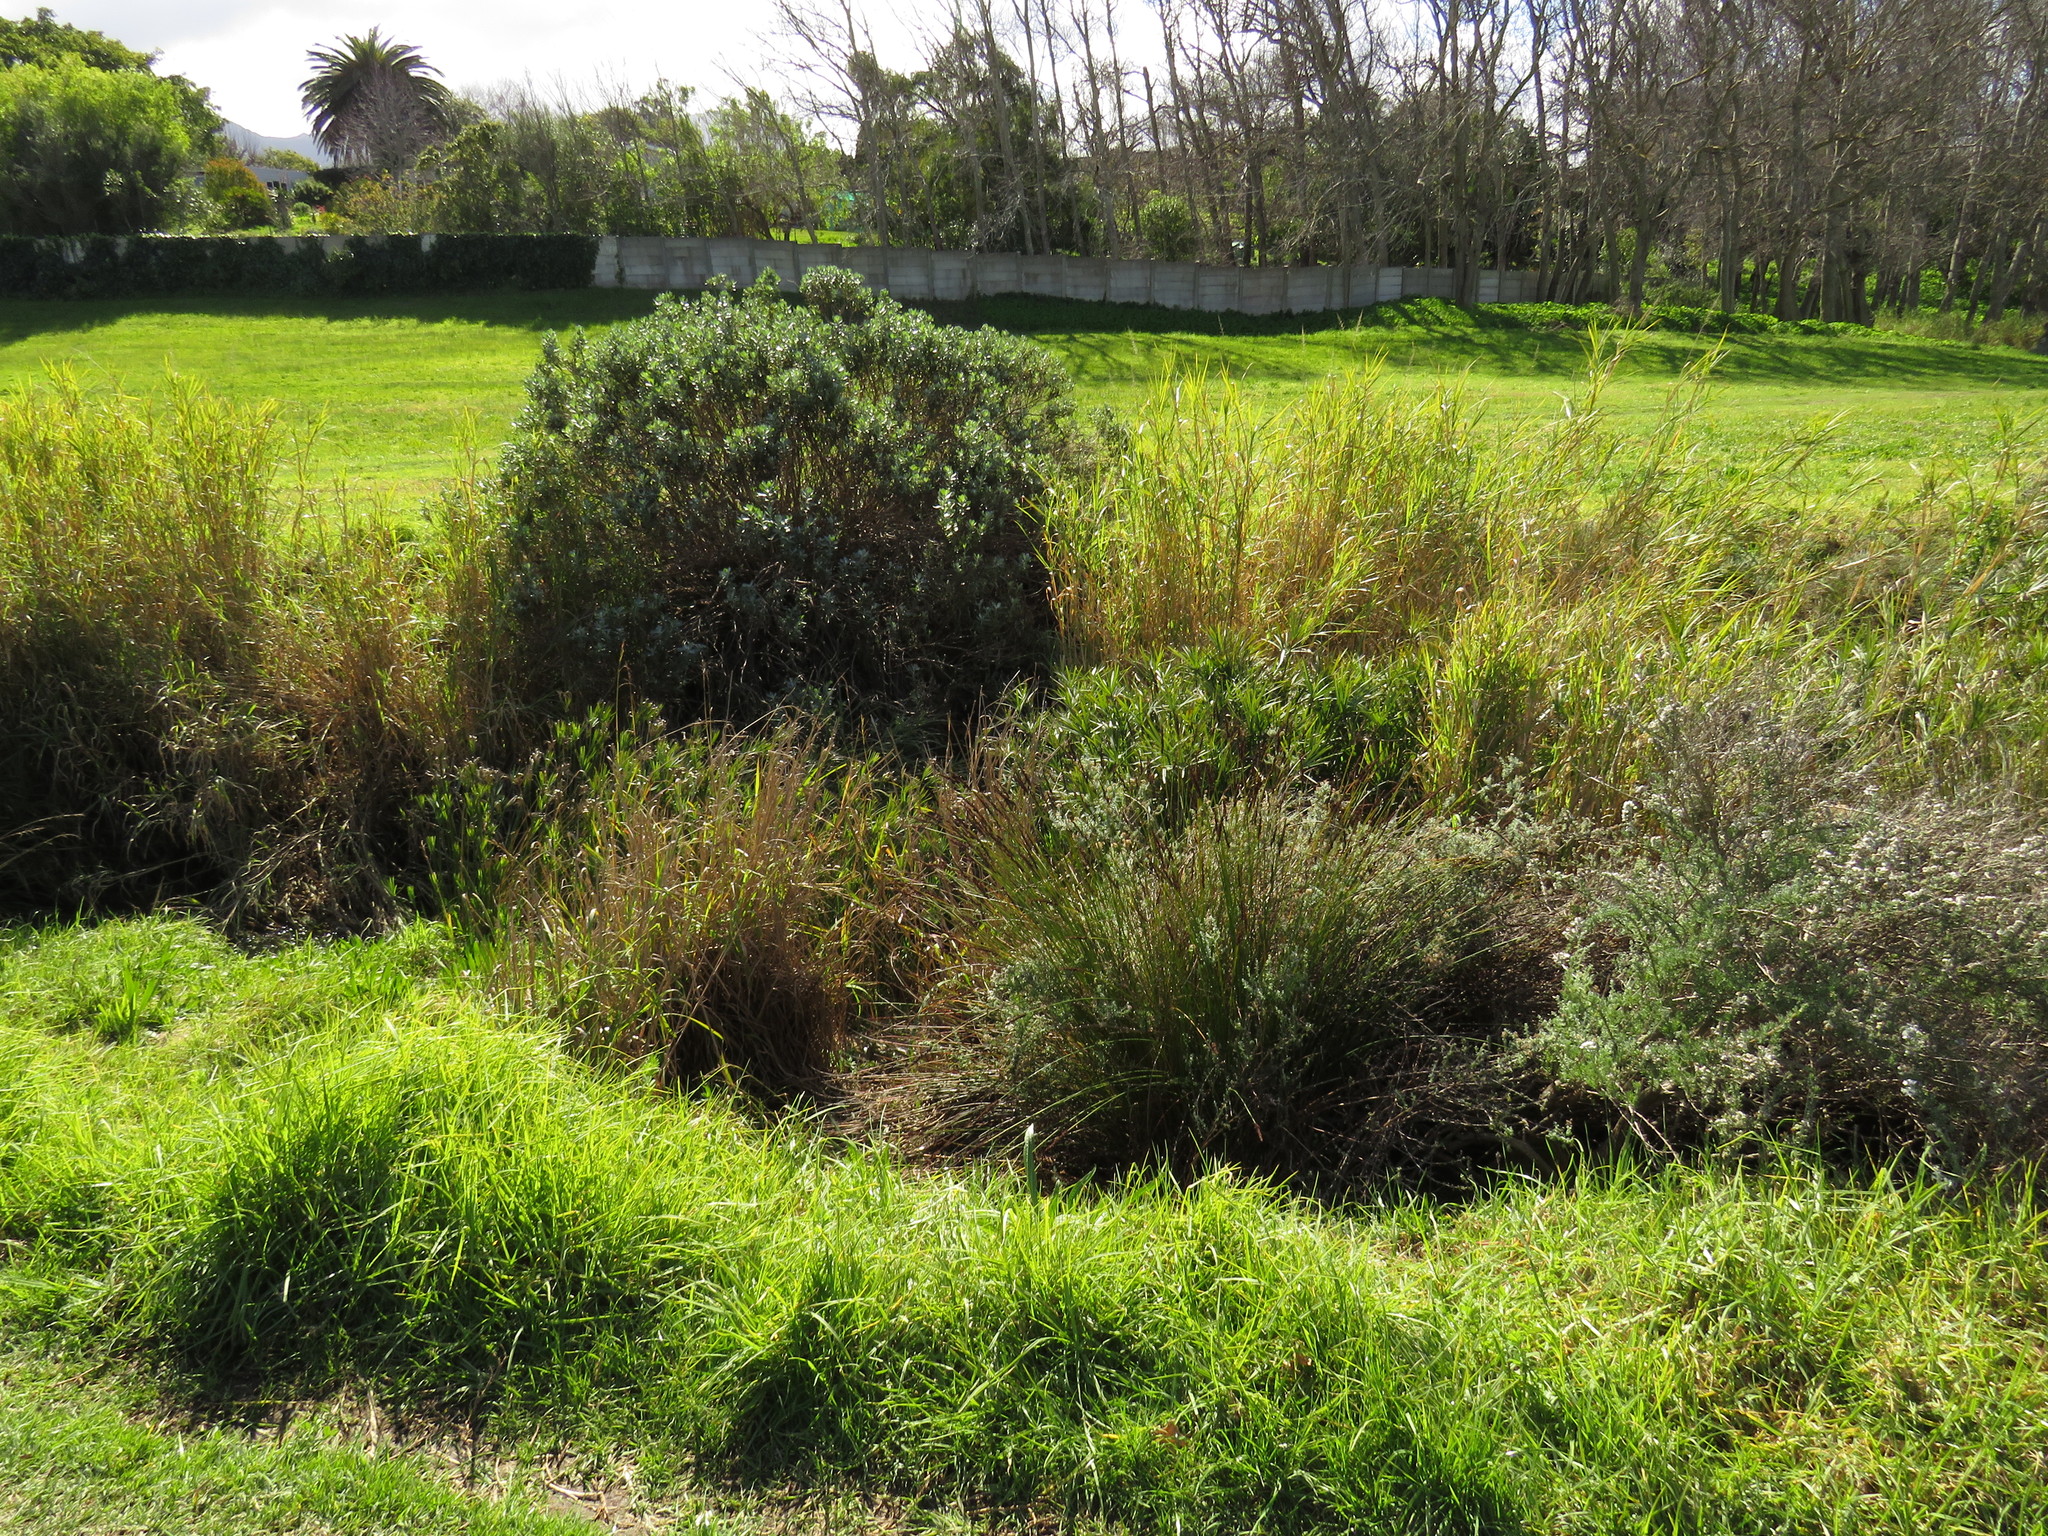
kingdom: Plantae
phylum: Tracheophyta
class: Magnoliopsida
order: Fabales
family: Fabaceae
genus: Psoralea
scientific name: Psoralea fascicularis
